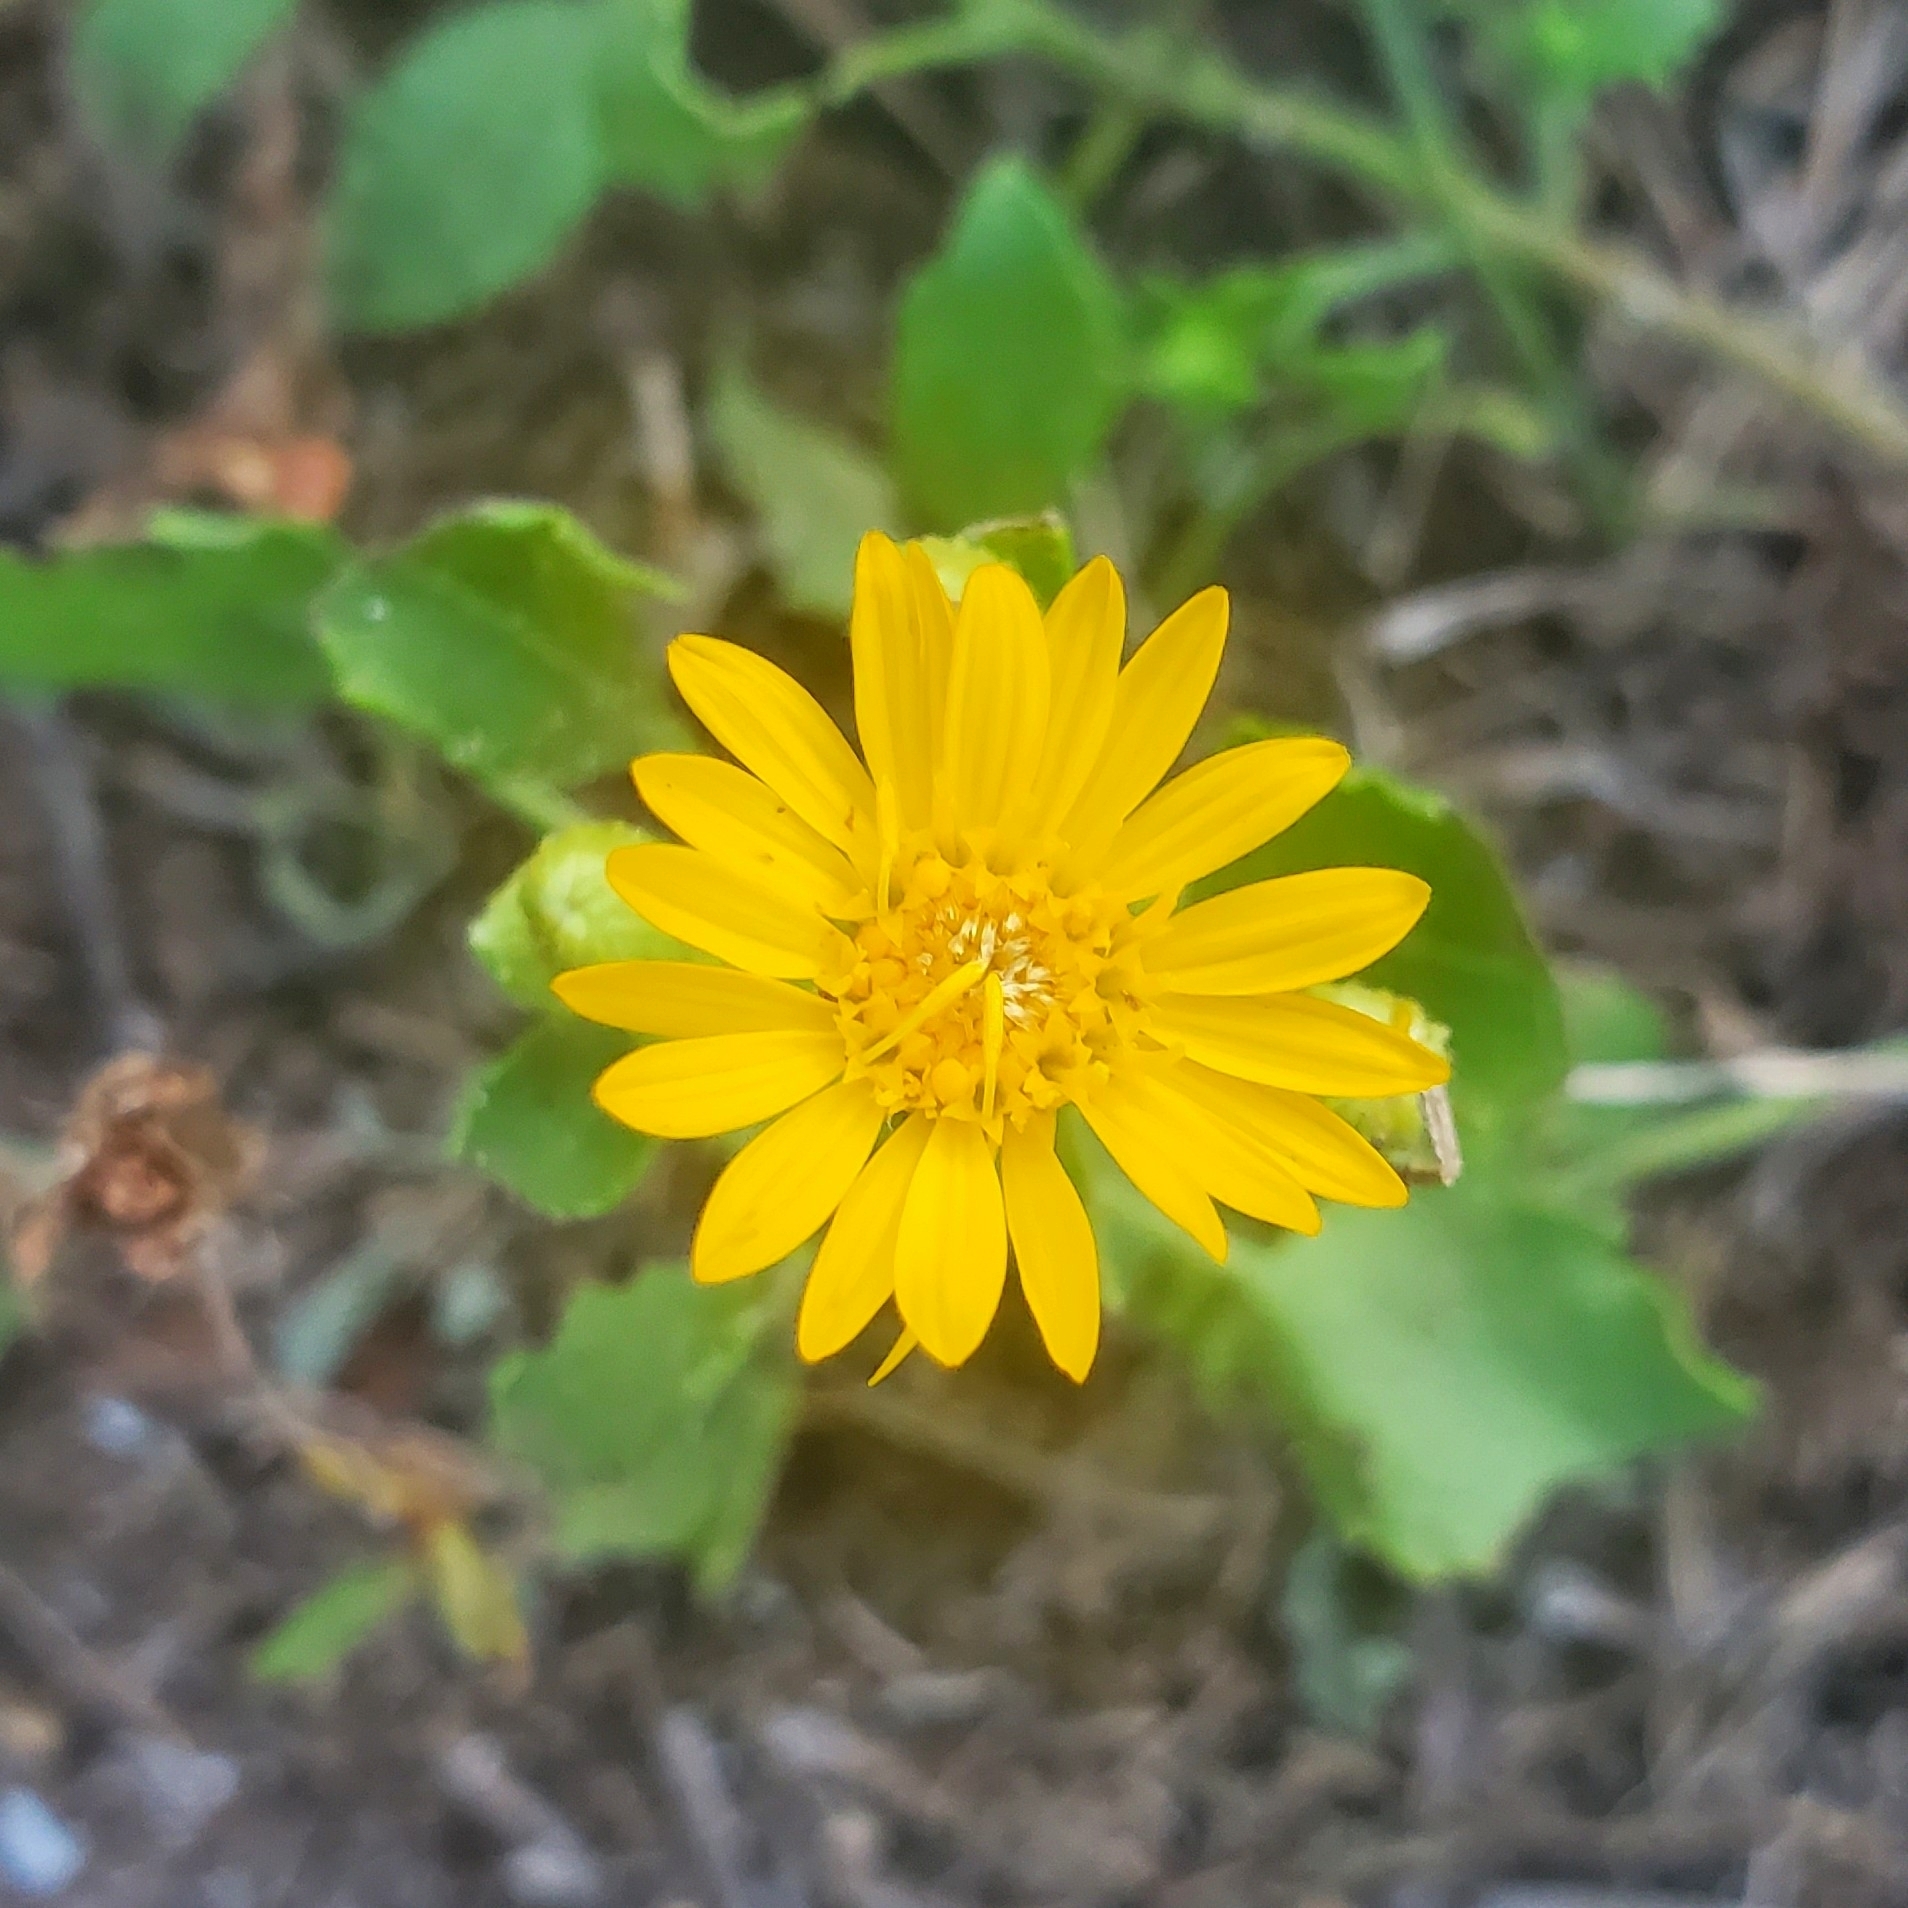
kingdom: Plantae
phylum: Tracheophyta
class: Magnoliopsida
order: Asterales
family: Asteraceae
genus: Heterotheca
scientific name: Heterotheca subaxillaris
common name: Camphorweed
